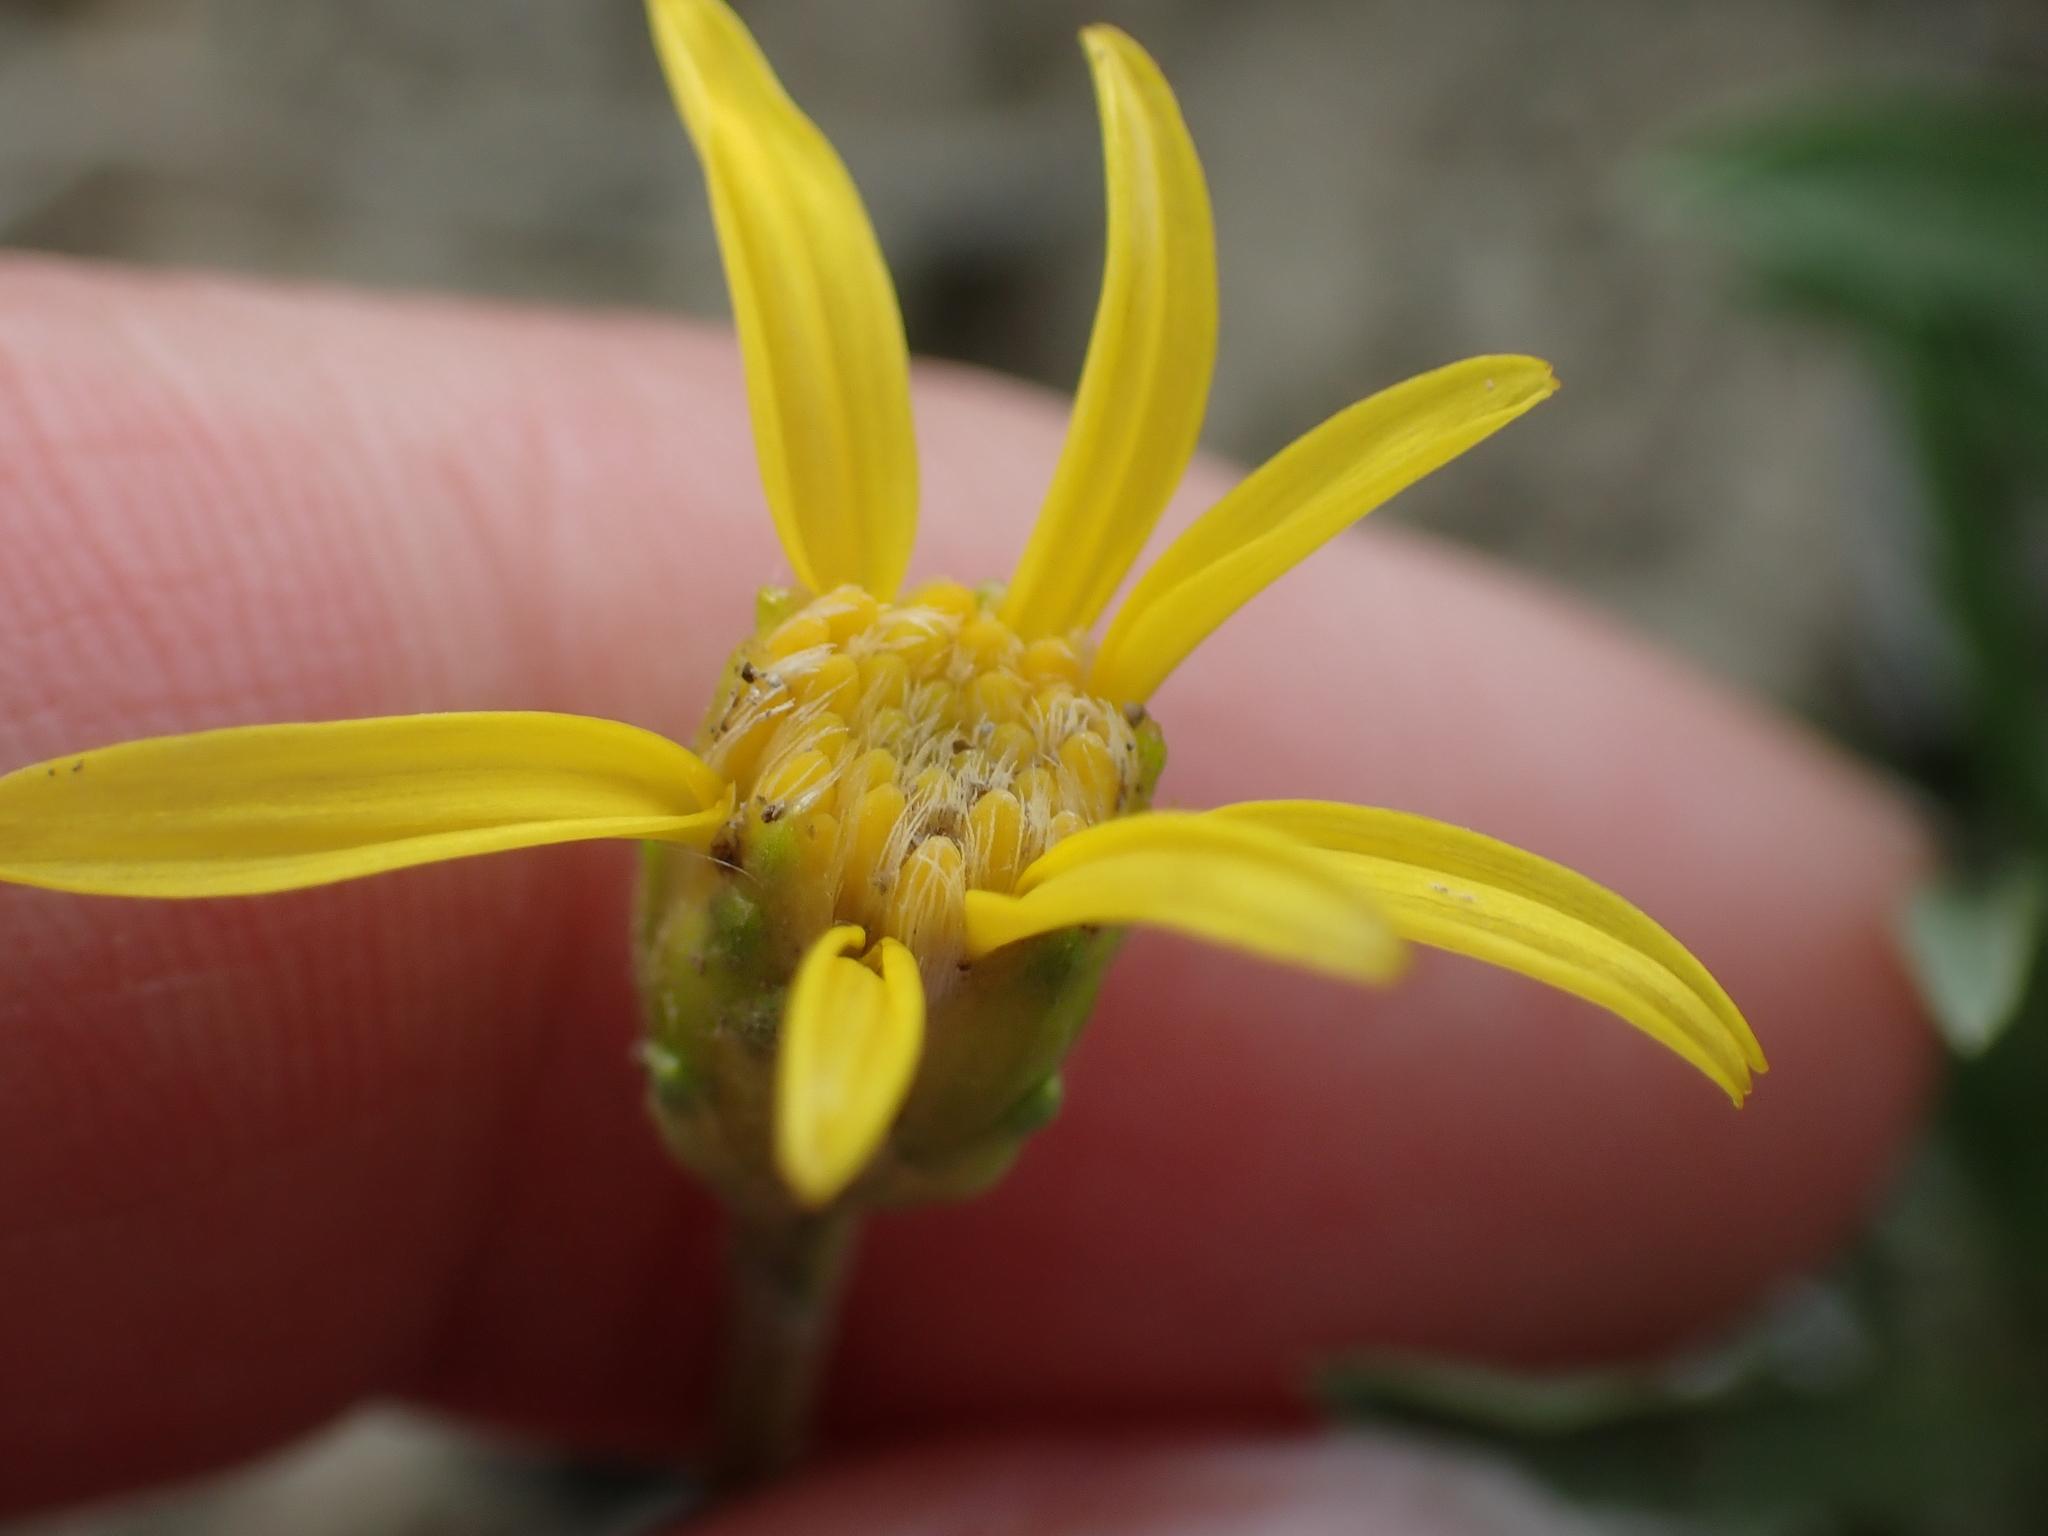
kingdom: Plantae
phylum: Tracheophyta
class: Magnoliopsida
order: Asterales
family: Asteraceae
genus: Stenotus
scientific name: Stenotus armerioides
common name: Thrifty goldenweed
